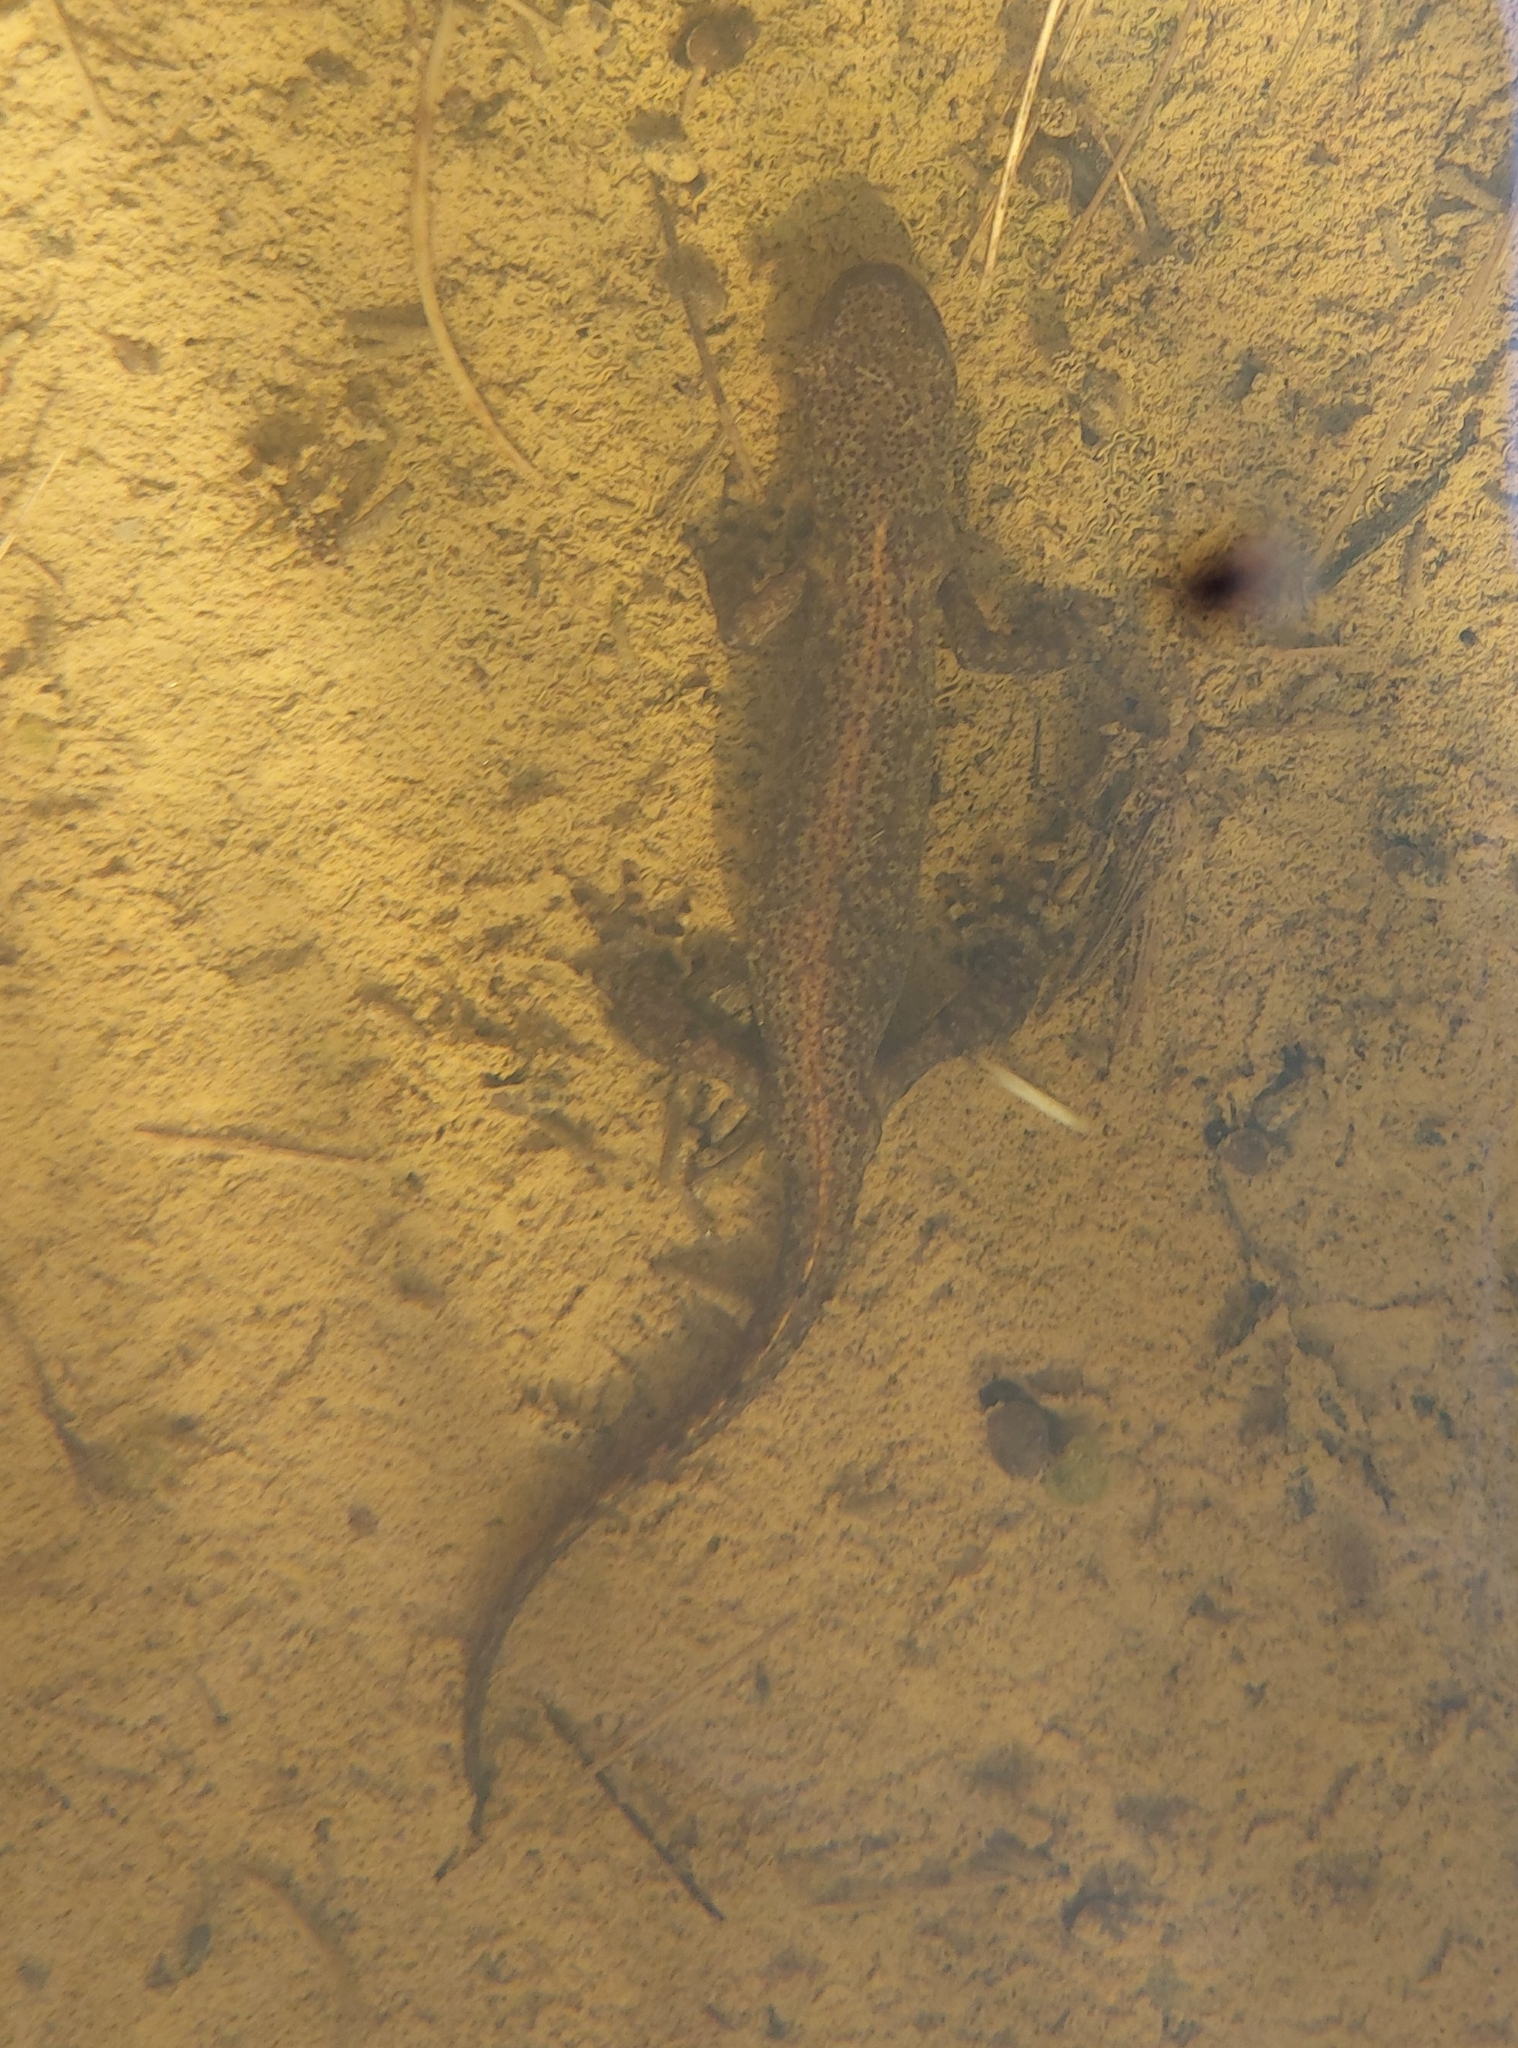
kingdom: Animalia
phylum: Chordata
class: Amphibia
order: Caudata
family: Salamandridae
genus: Ichthyosaura
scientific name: Ichthyosaura alpestris
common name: Alpine newt
